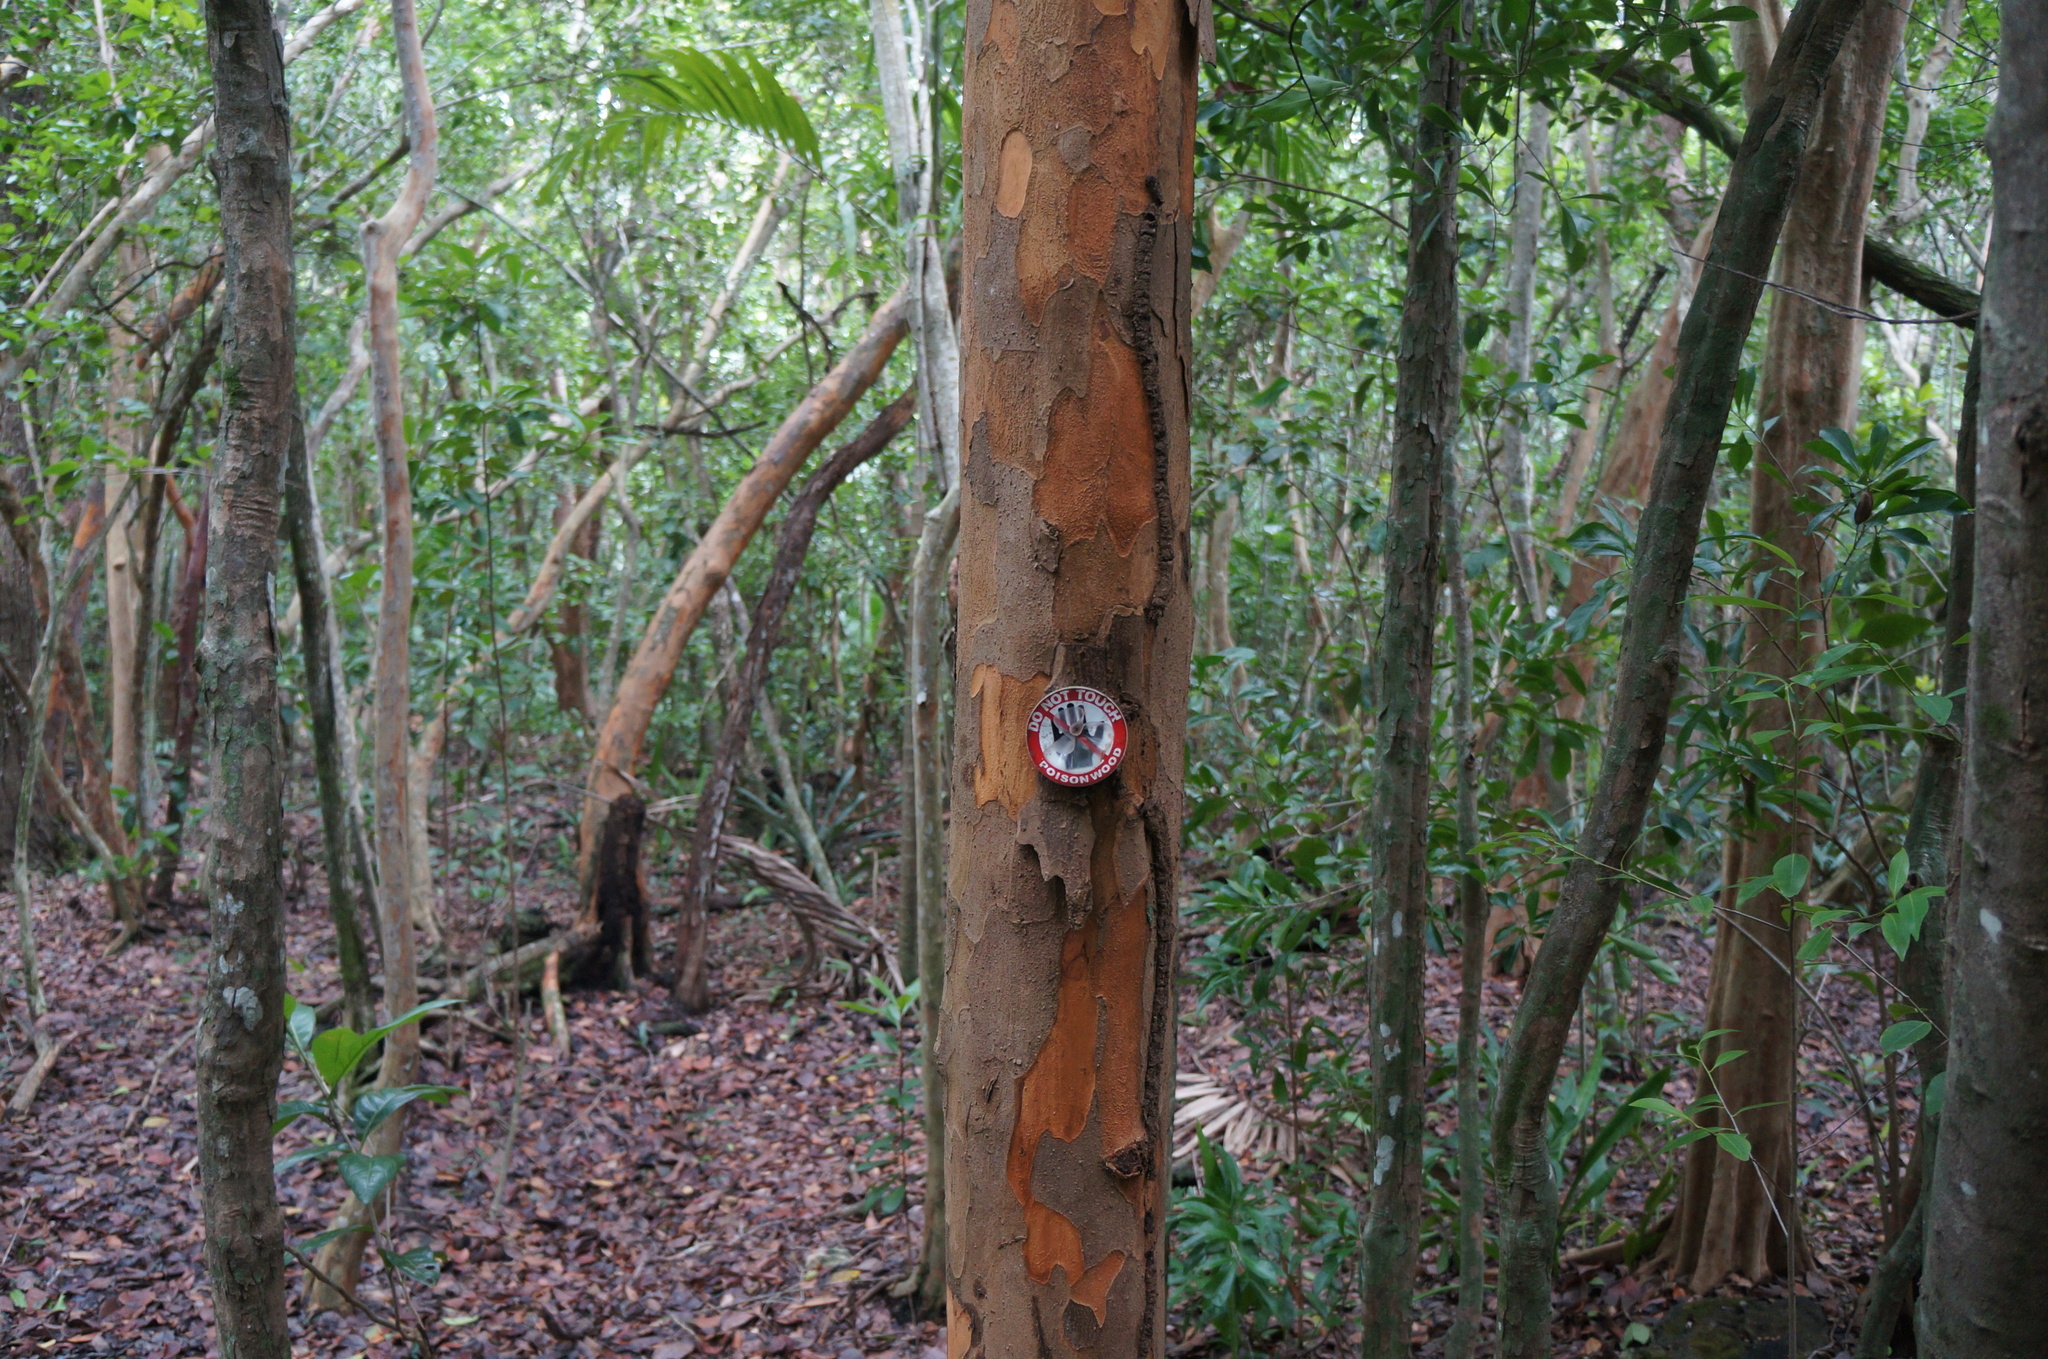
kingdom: Plantae
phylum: Tracheophyta
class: Magnoliopsida
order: Sapindales
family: Anacardiaceae
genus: Metopium
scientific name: Metopium toxiferum
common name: Florida poisontree
